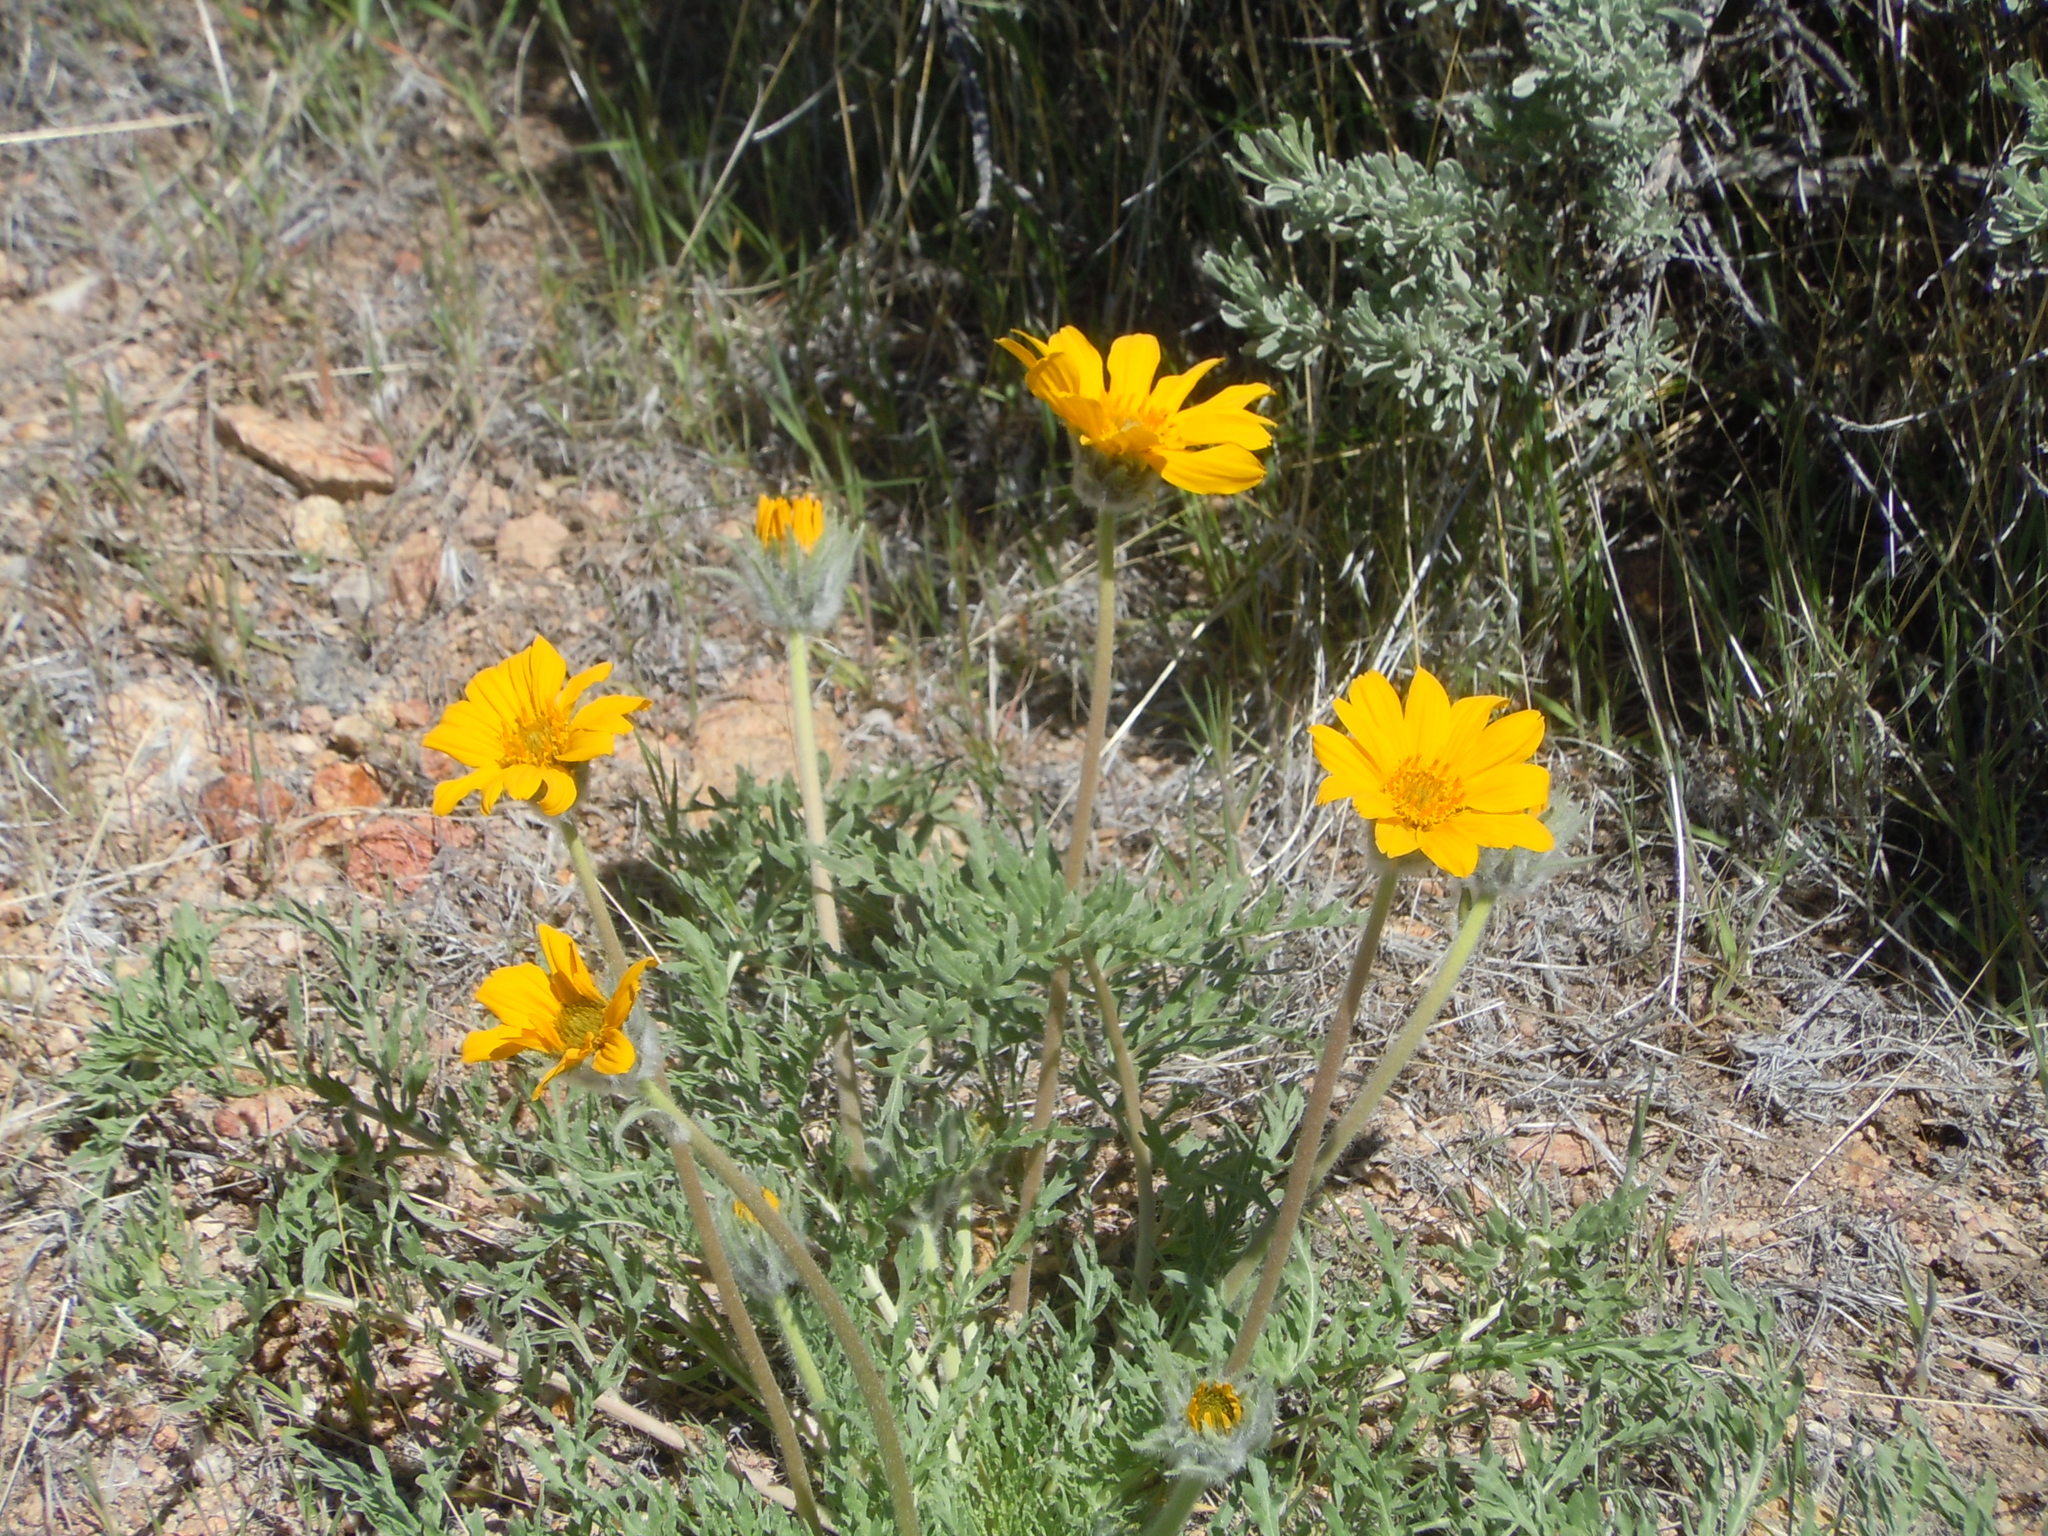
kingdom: Plantae
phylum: Tracheophyta
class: Magnoliopsida
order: Asterales
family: Asteraceae
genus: Balsamorhiza
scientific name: Balsamorhiza hookeri
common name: Hooker's balsamroot
